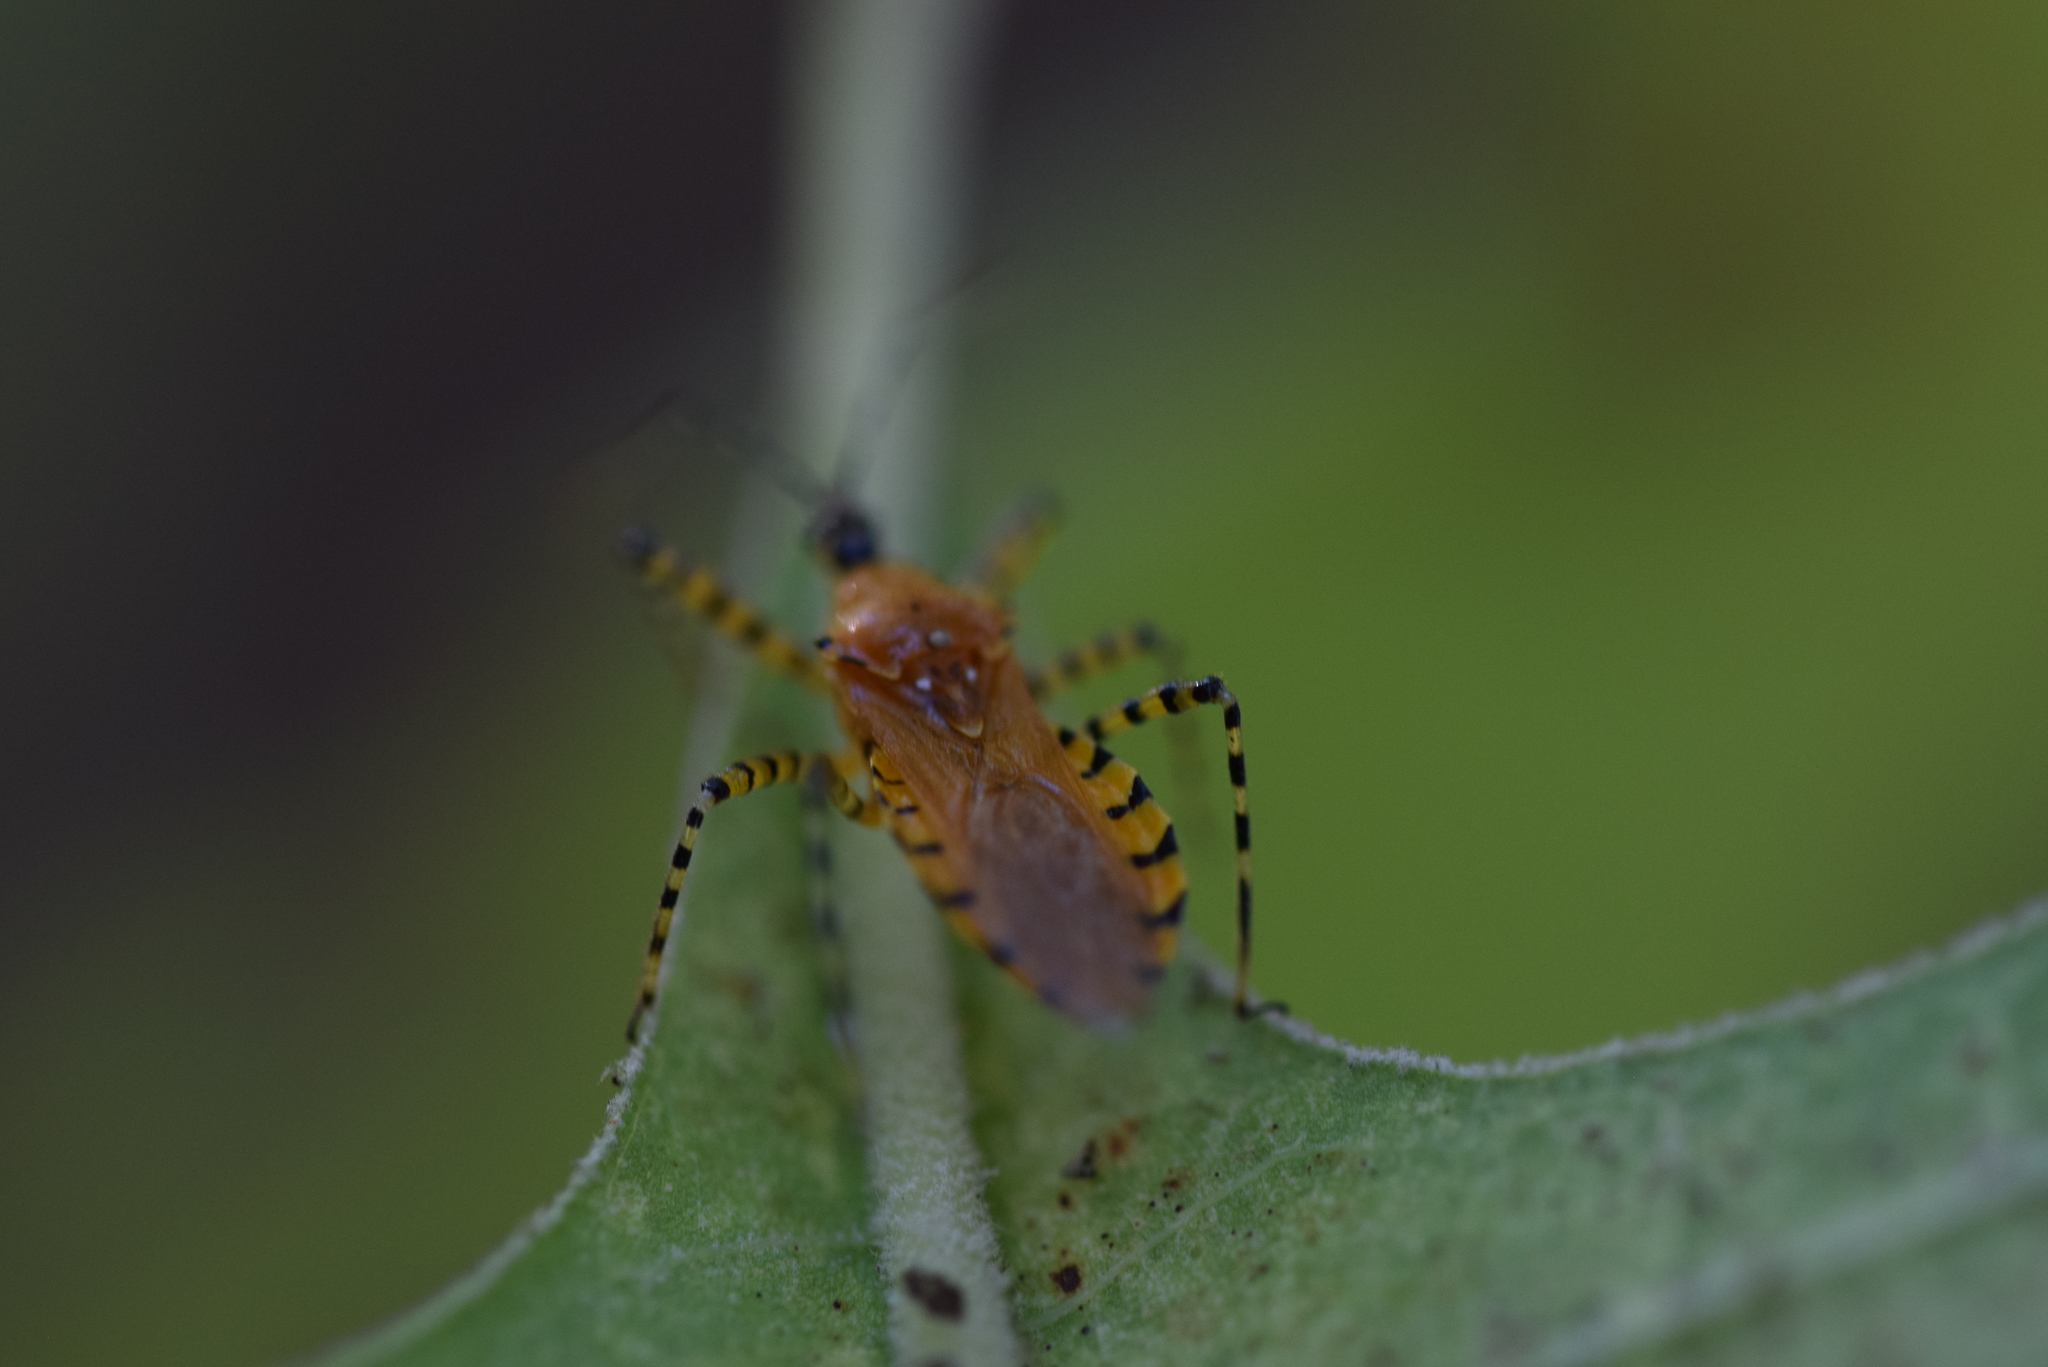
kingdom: Animalia
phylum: Arthropoda
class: Insecta
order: Hemiptera
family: Reduviidae
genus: Pselliopus
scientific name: Pselliopus barberi
